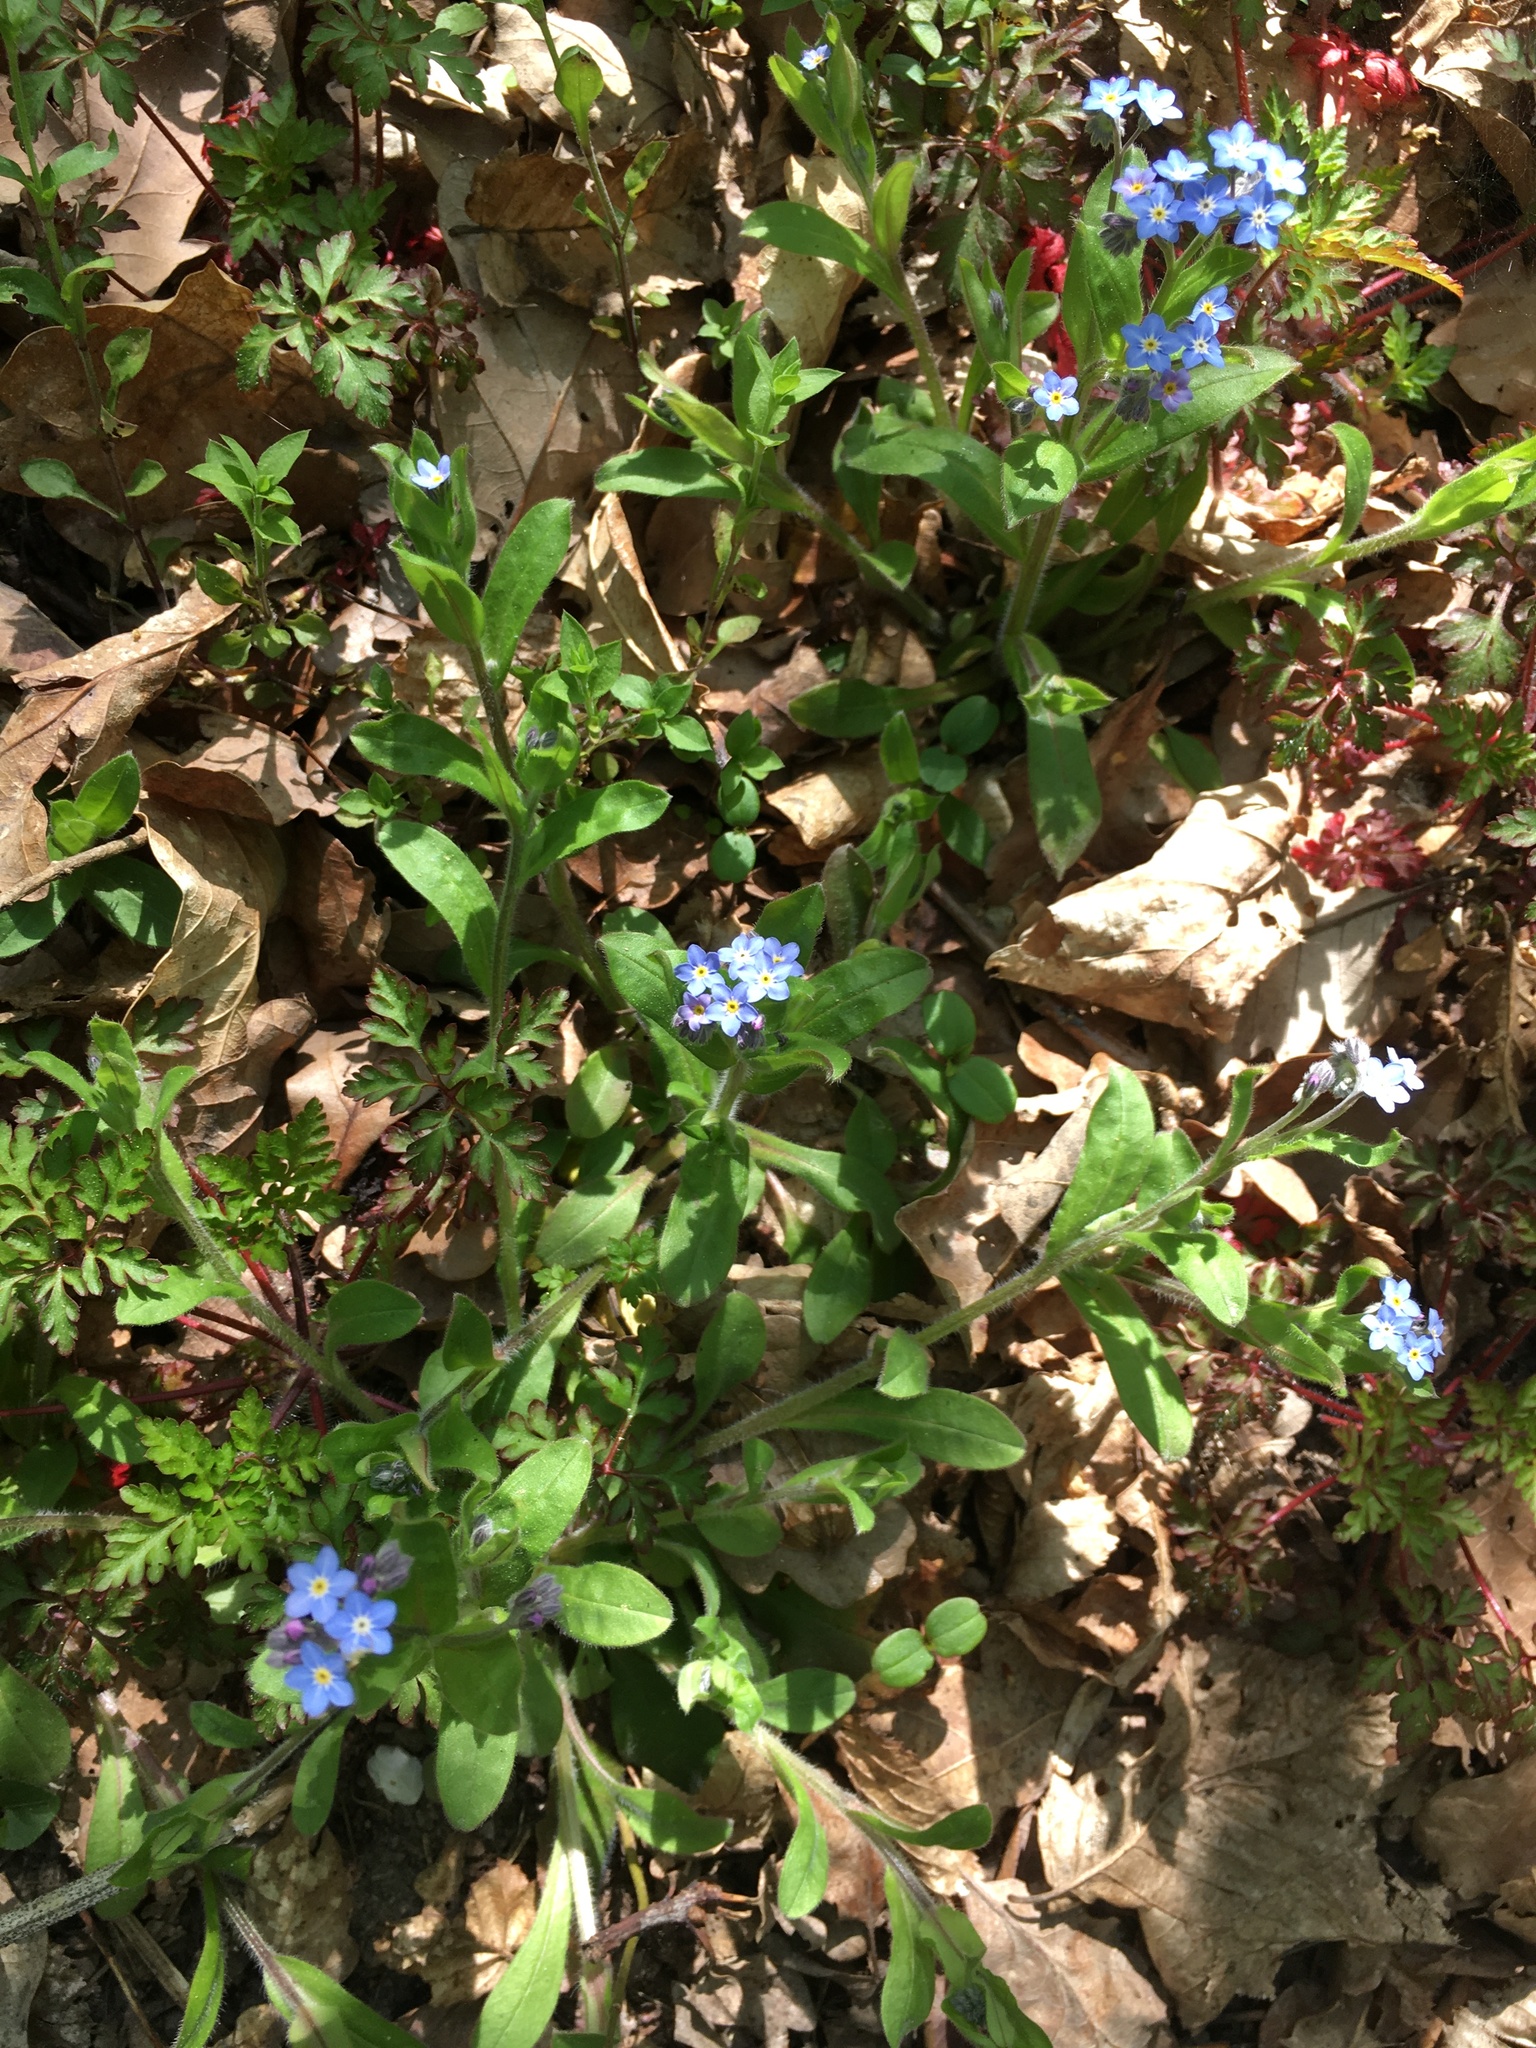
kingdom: Plantae
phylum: Tracheophyta
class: Magnoliopsida
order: Boraginales
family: Boraginaceae
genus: Myosotis
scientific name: Myosotis sylvatica
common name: Wood forget-me-not
